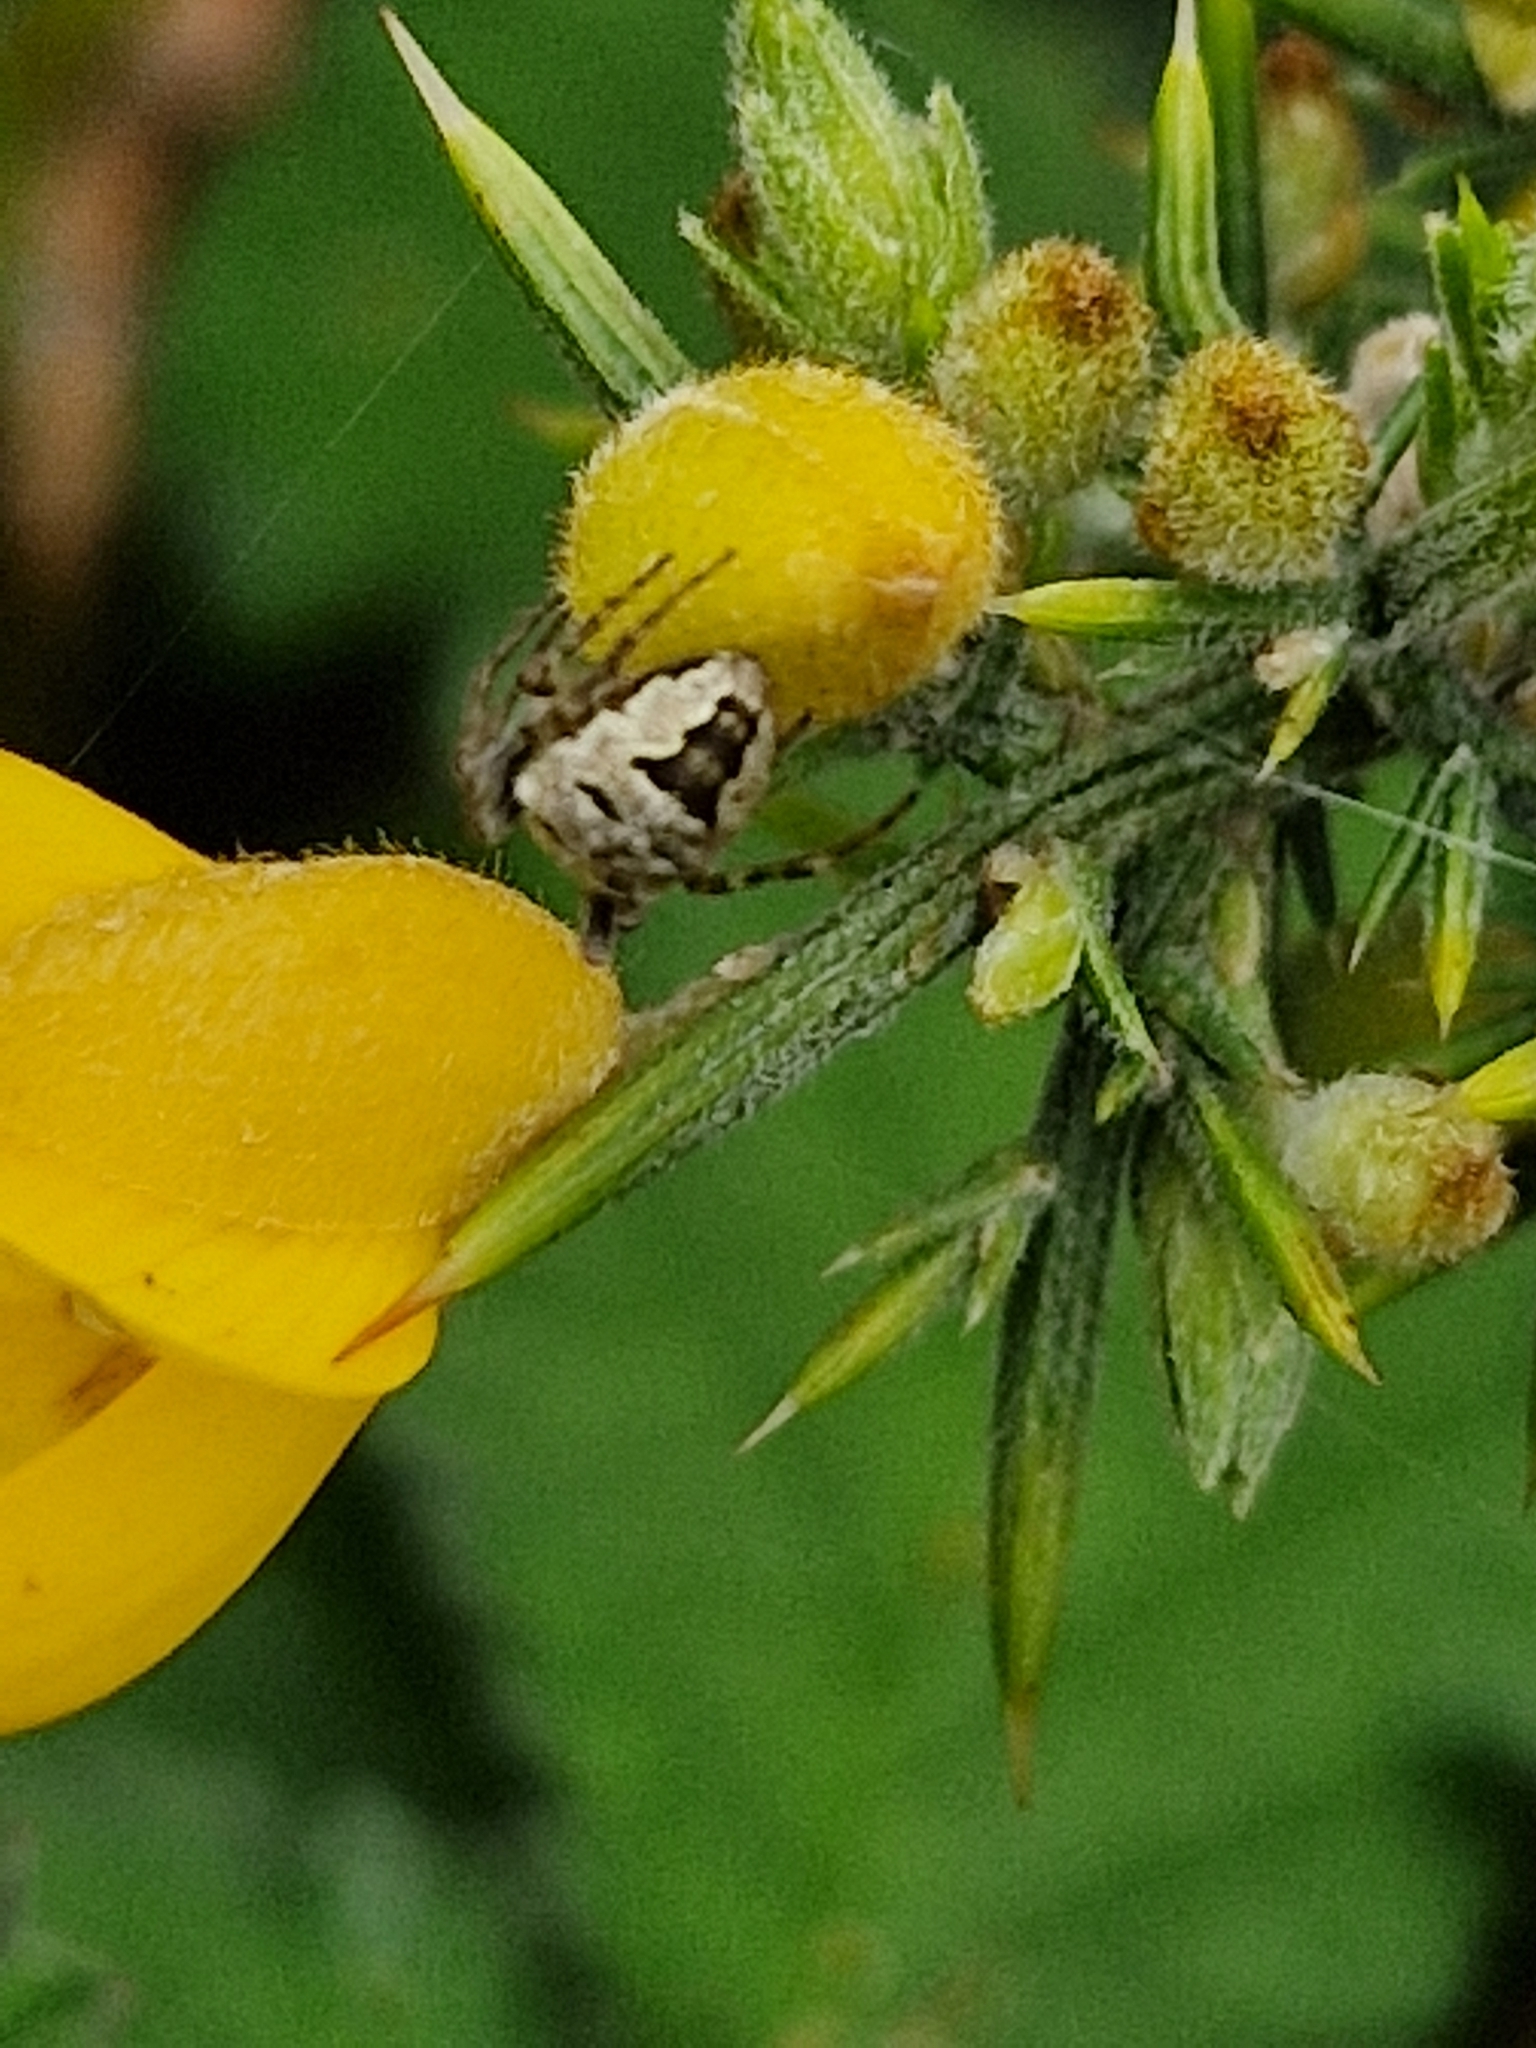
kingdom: Animalia
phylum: Arthropoda
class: Arachnida
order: Araneae
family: Araneidae
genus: Zilla
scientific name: Zilla diodia
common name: Zilla diodia
